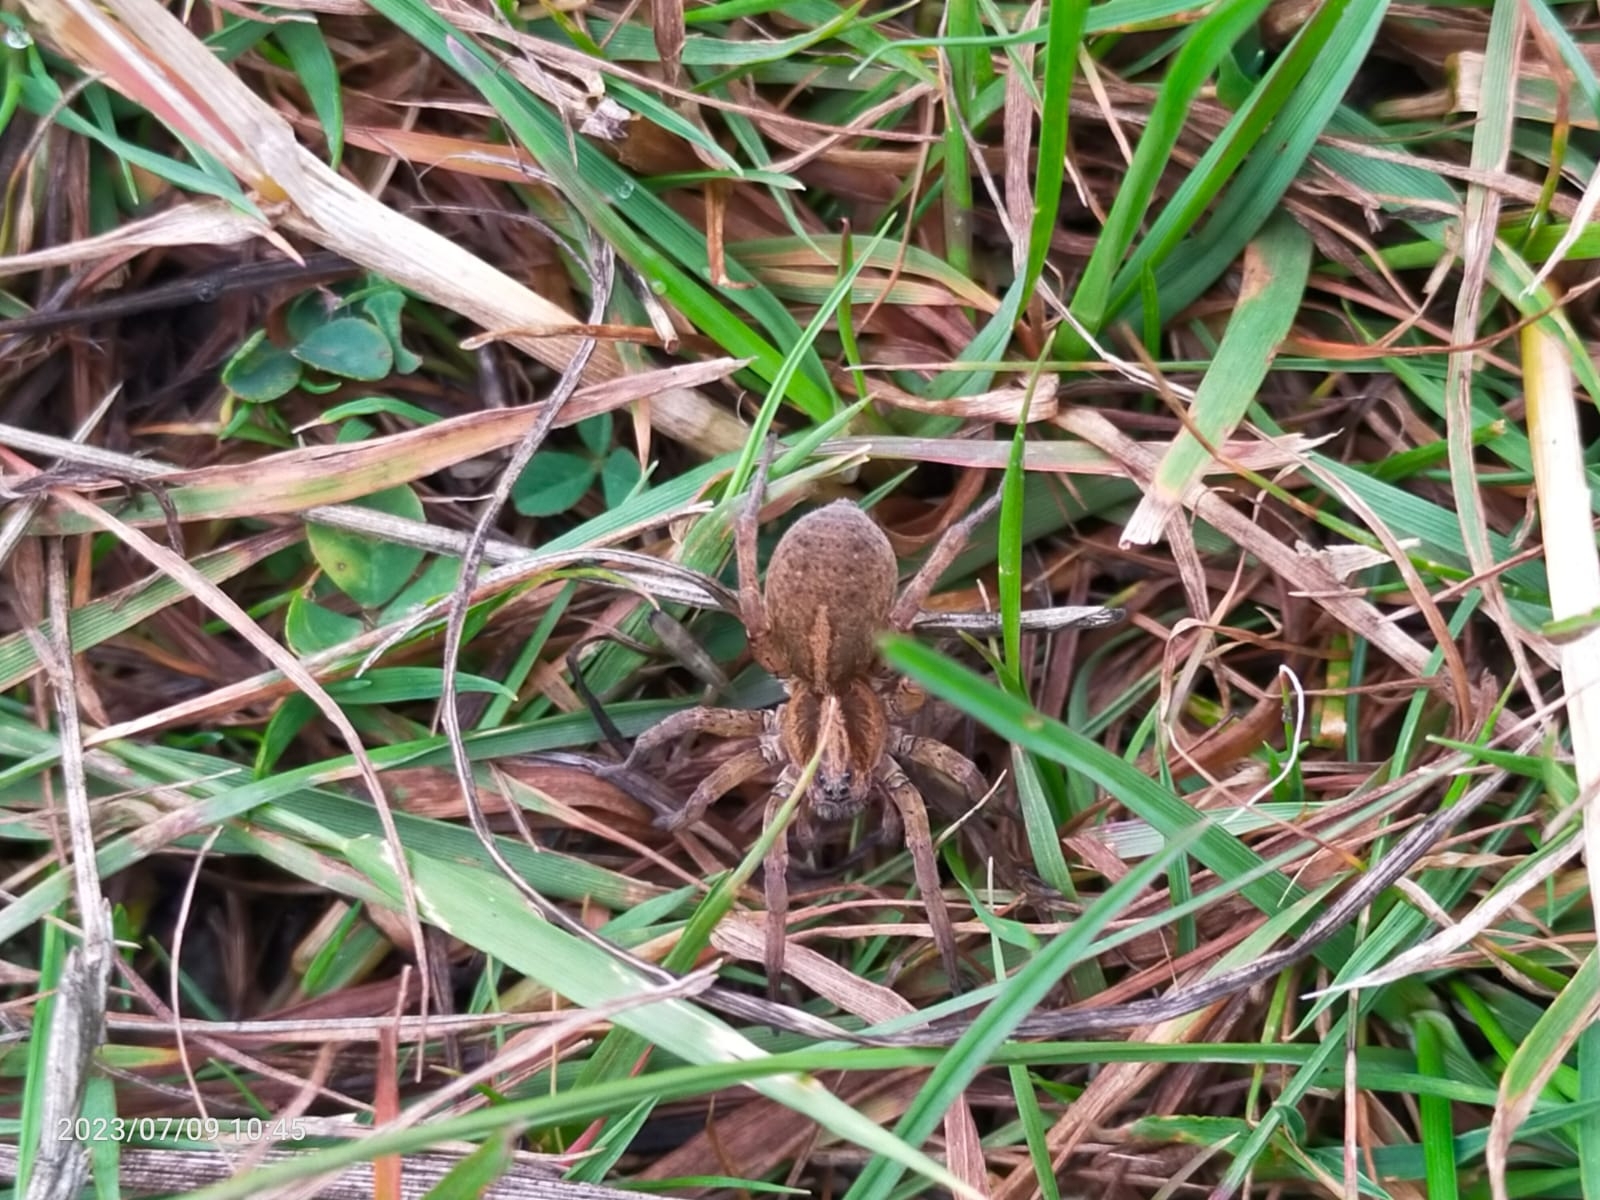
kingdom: Animalia
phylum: Arthropoda
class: Arachnida
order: Araneae
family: Lycosidae
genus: Trochosa
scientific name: Trochosa ruricola
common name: Spider
